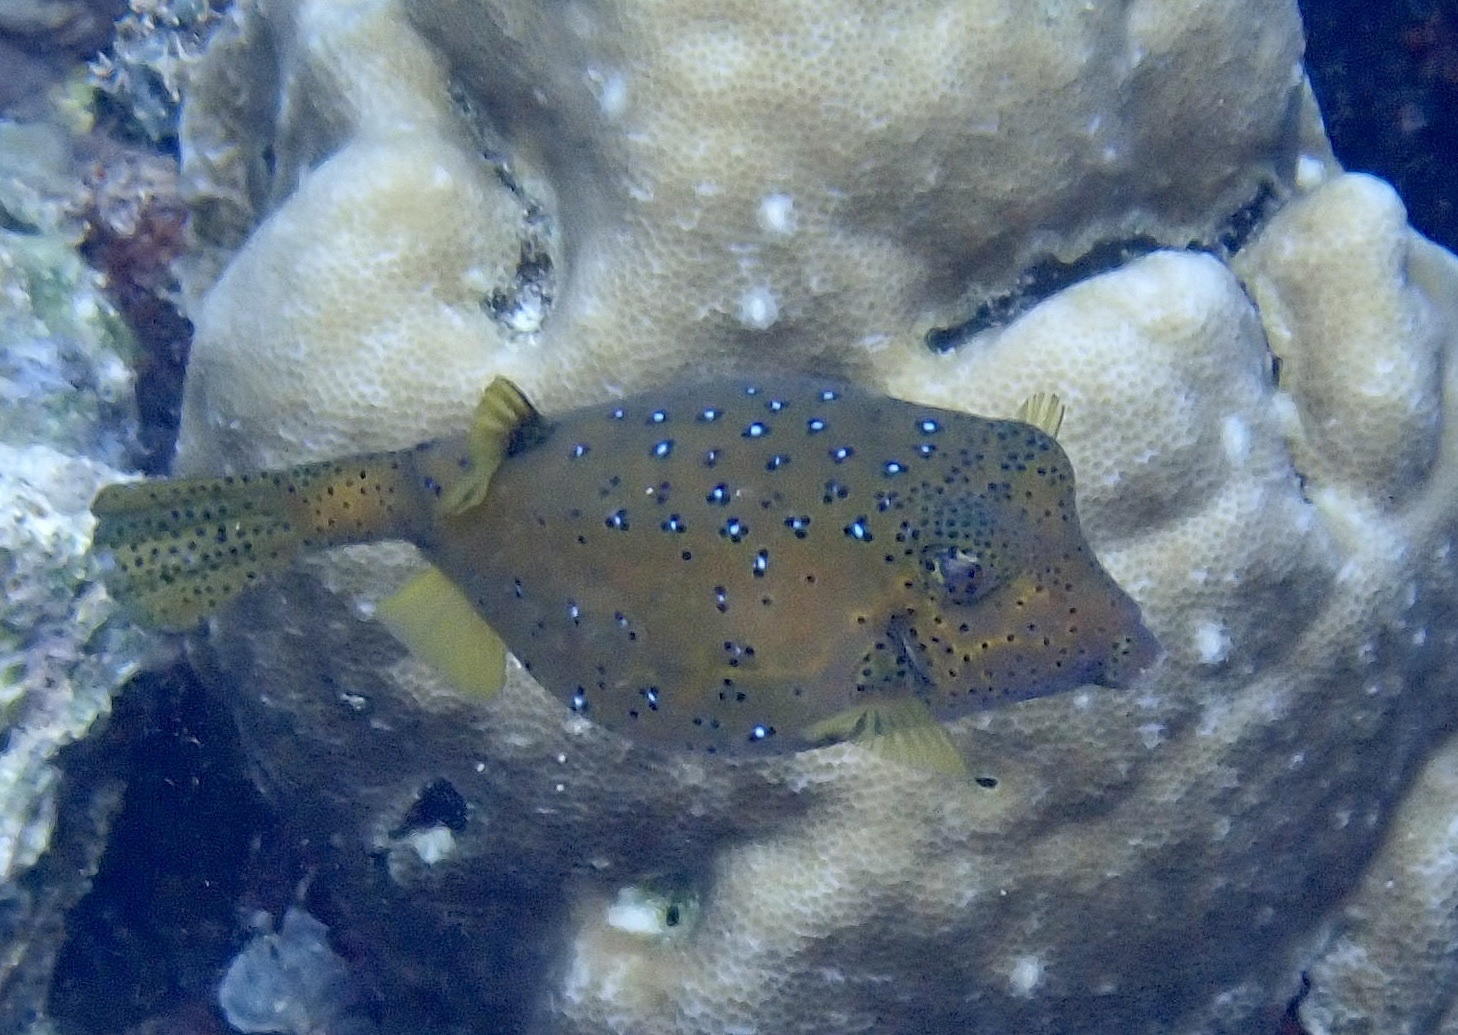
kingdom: Animalia
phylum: Chordata
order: Tetraodontiformes
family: Ostraciidae
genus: Ostracion
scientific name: Ostracion cubicus
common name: Cube trunkfish
